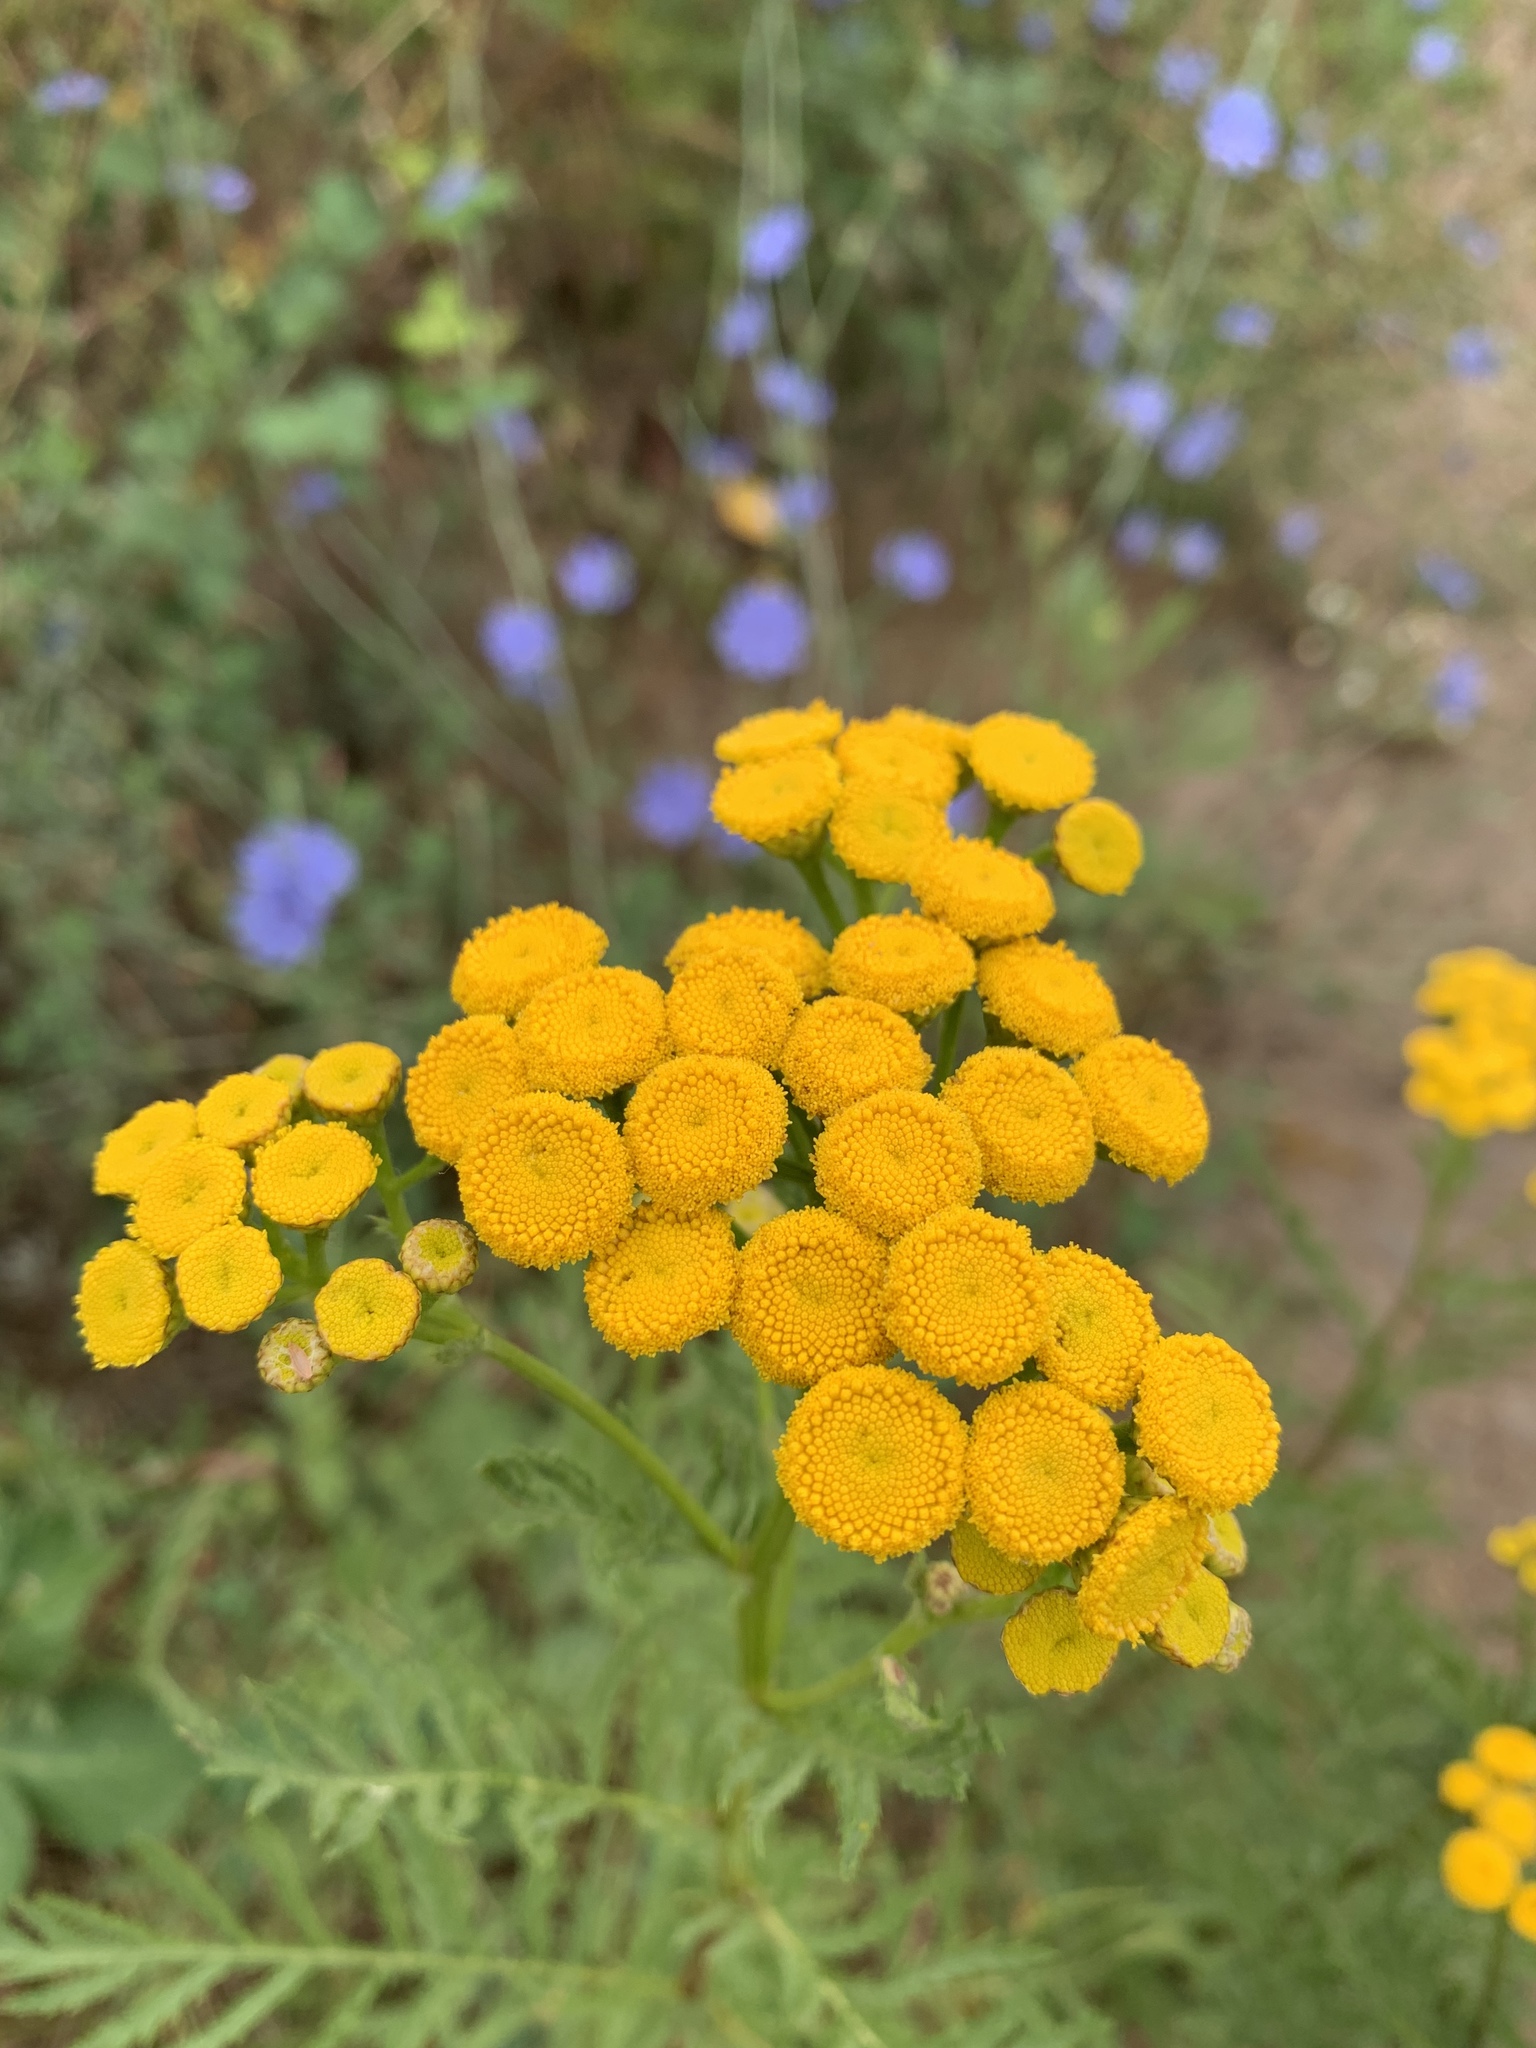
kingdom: Plantae
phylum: Tracheophyta
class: Magnoliopsida
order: Asterales
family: Asteraceae
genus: Tanacetum
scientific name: Tanacetum vulgare
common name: Common tansy
